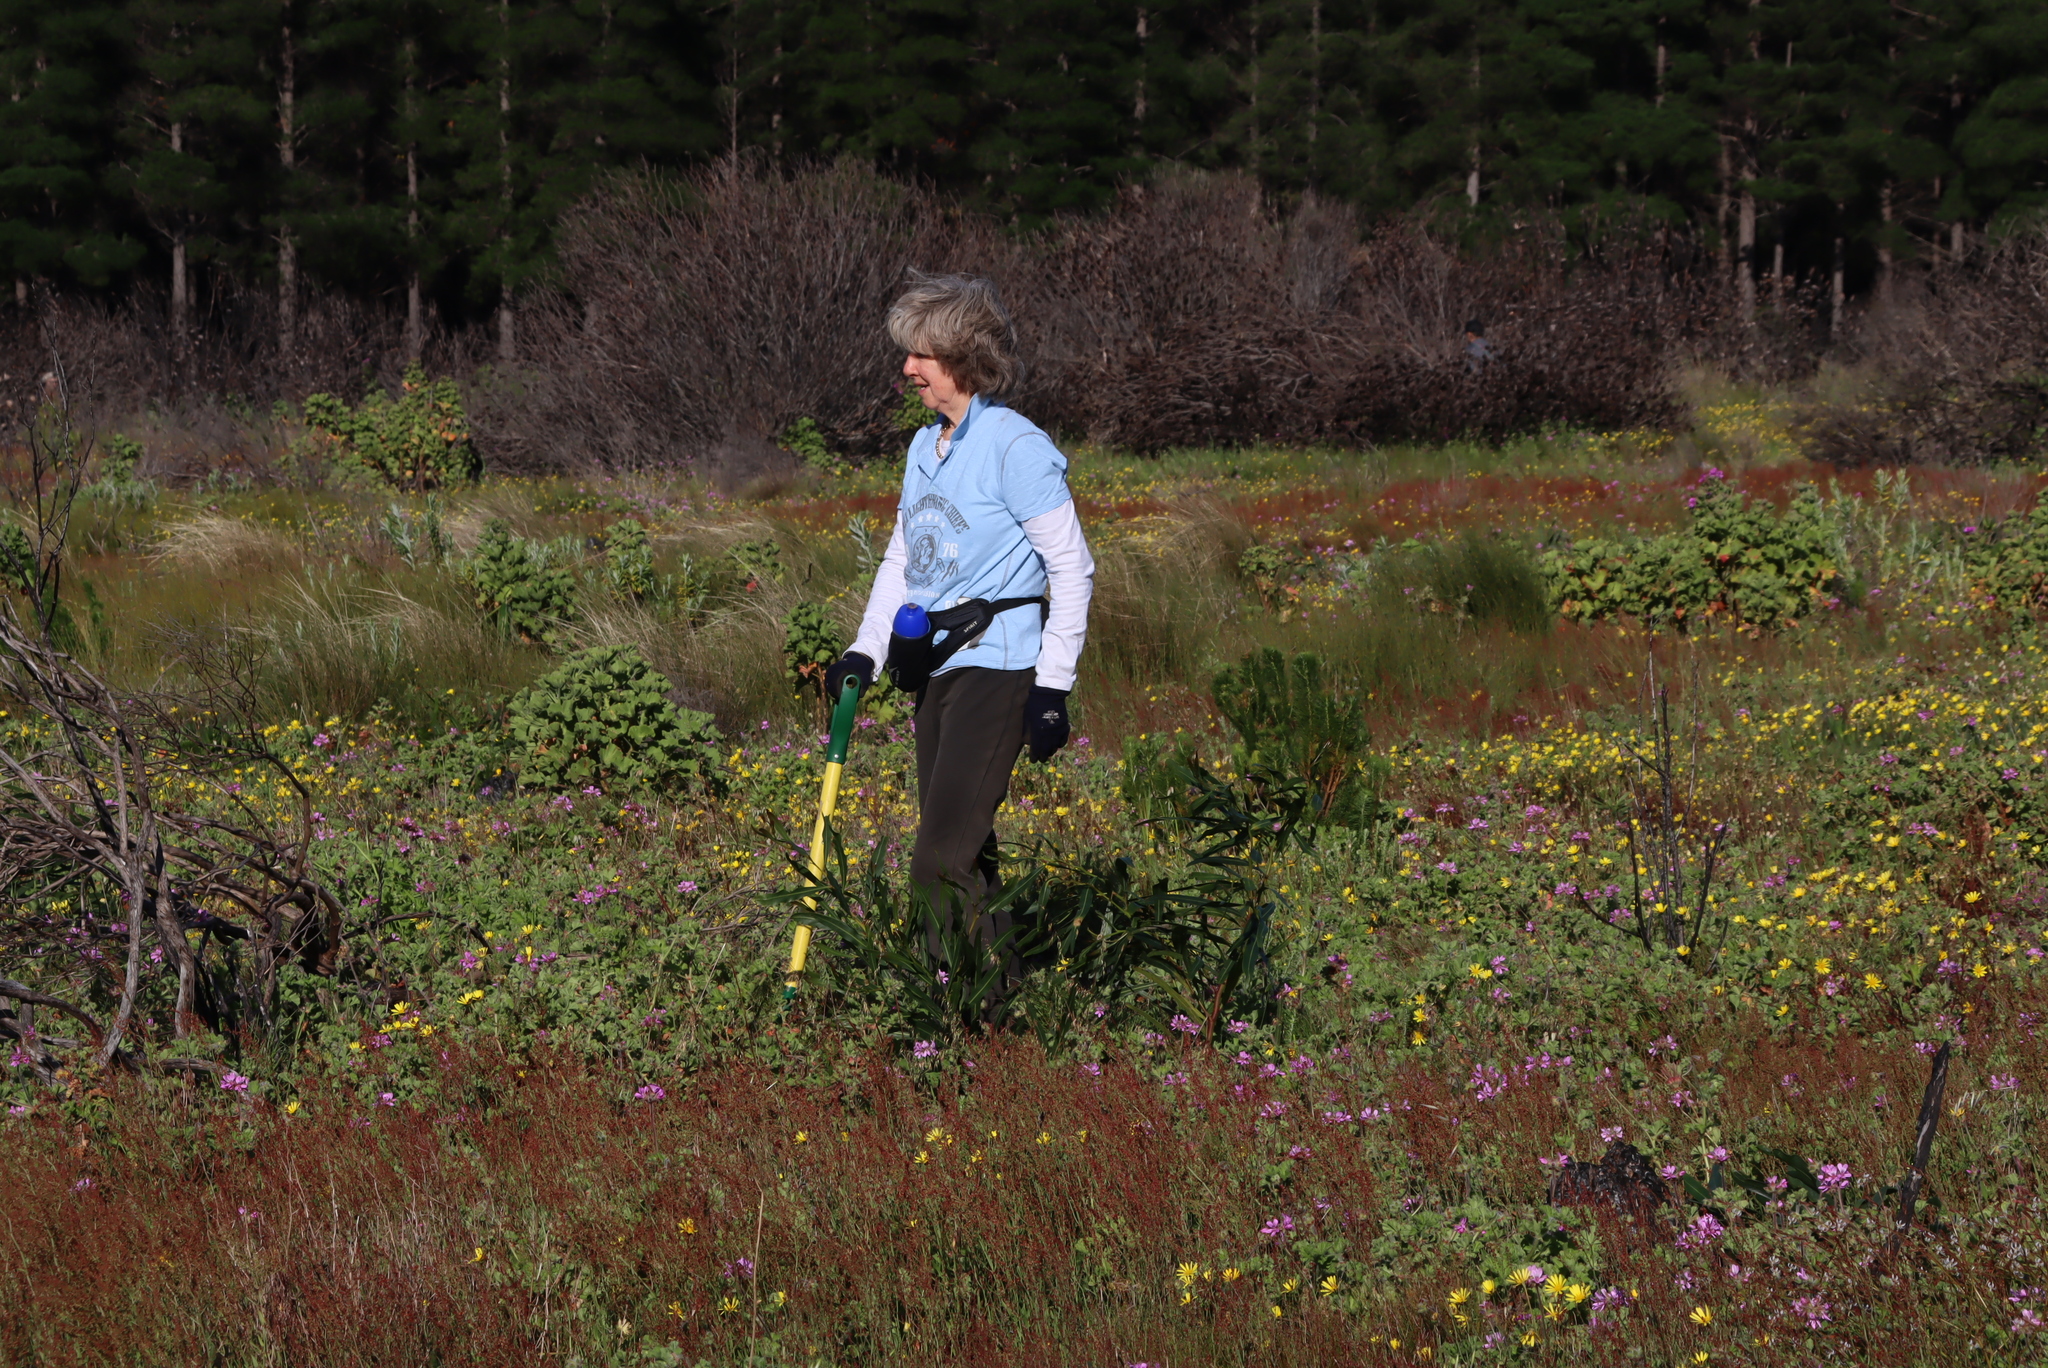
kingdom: Plantae
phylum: Tracheophyta
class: Magnoliopsida
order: Fabales
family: Fabaceae
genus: Acacia
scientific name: Acacia saligna
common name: Orange wattle
